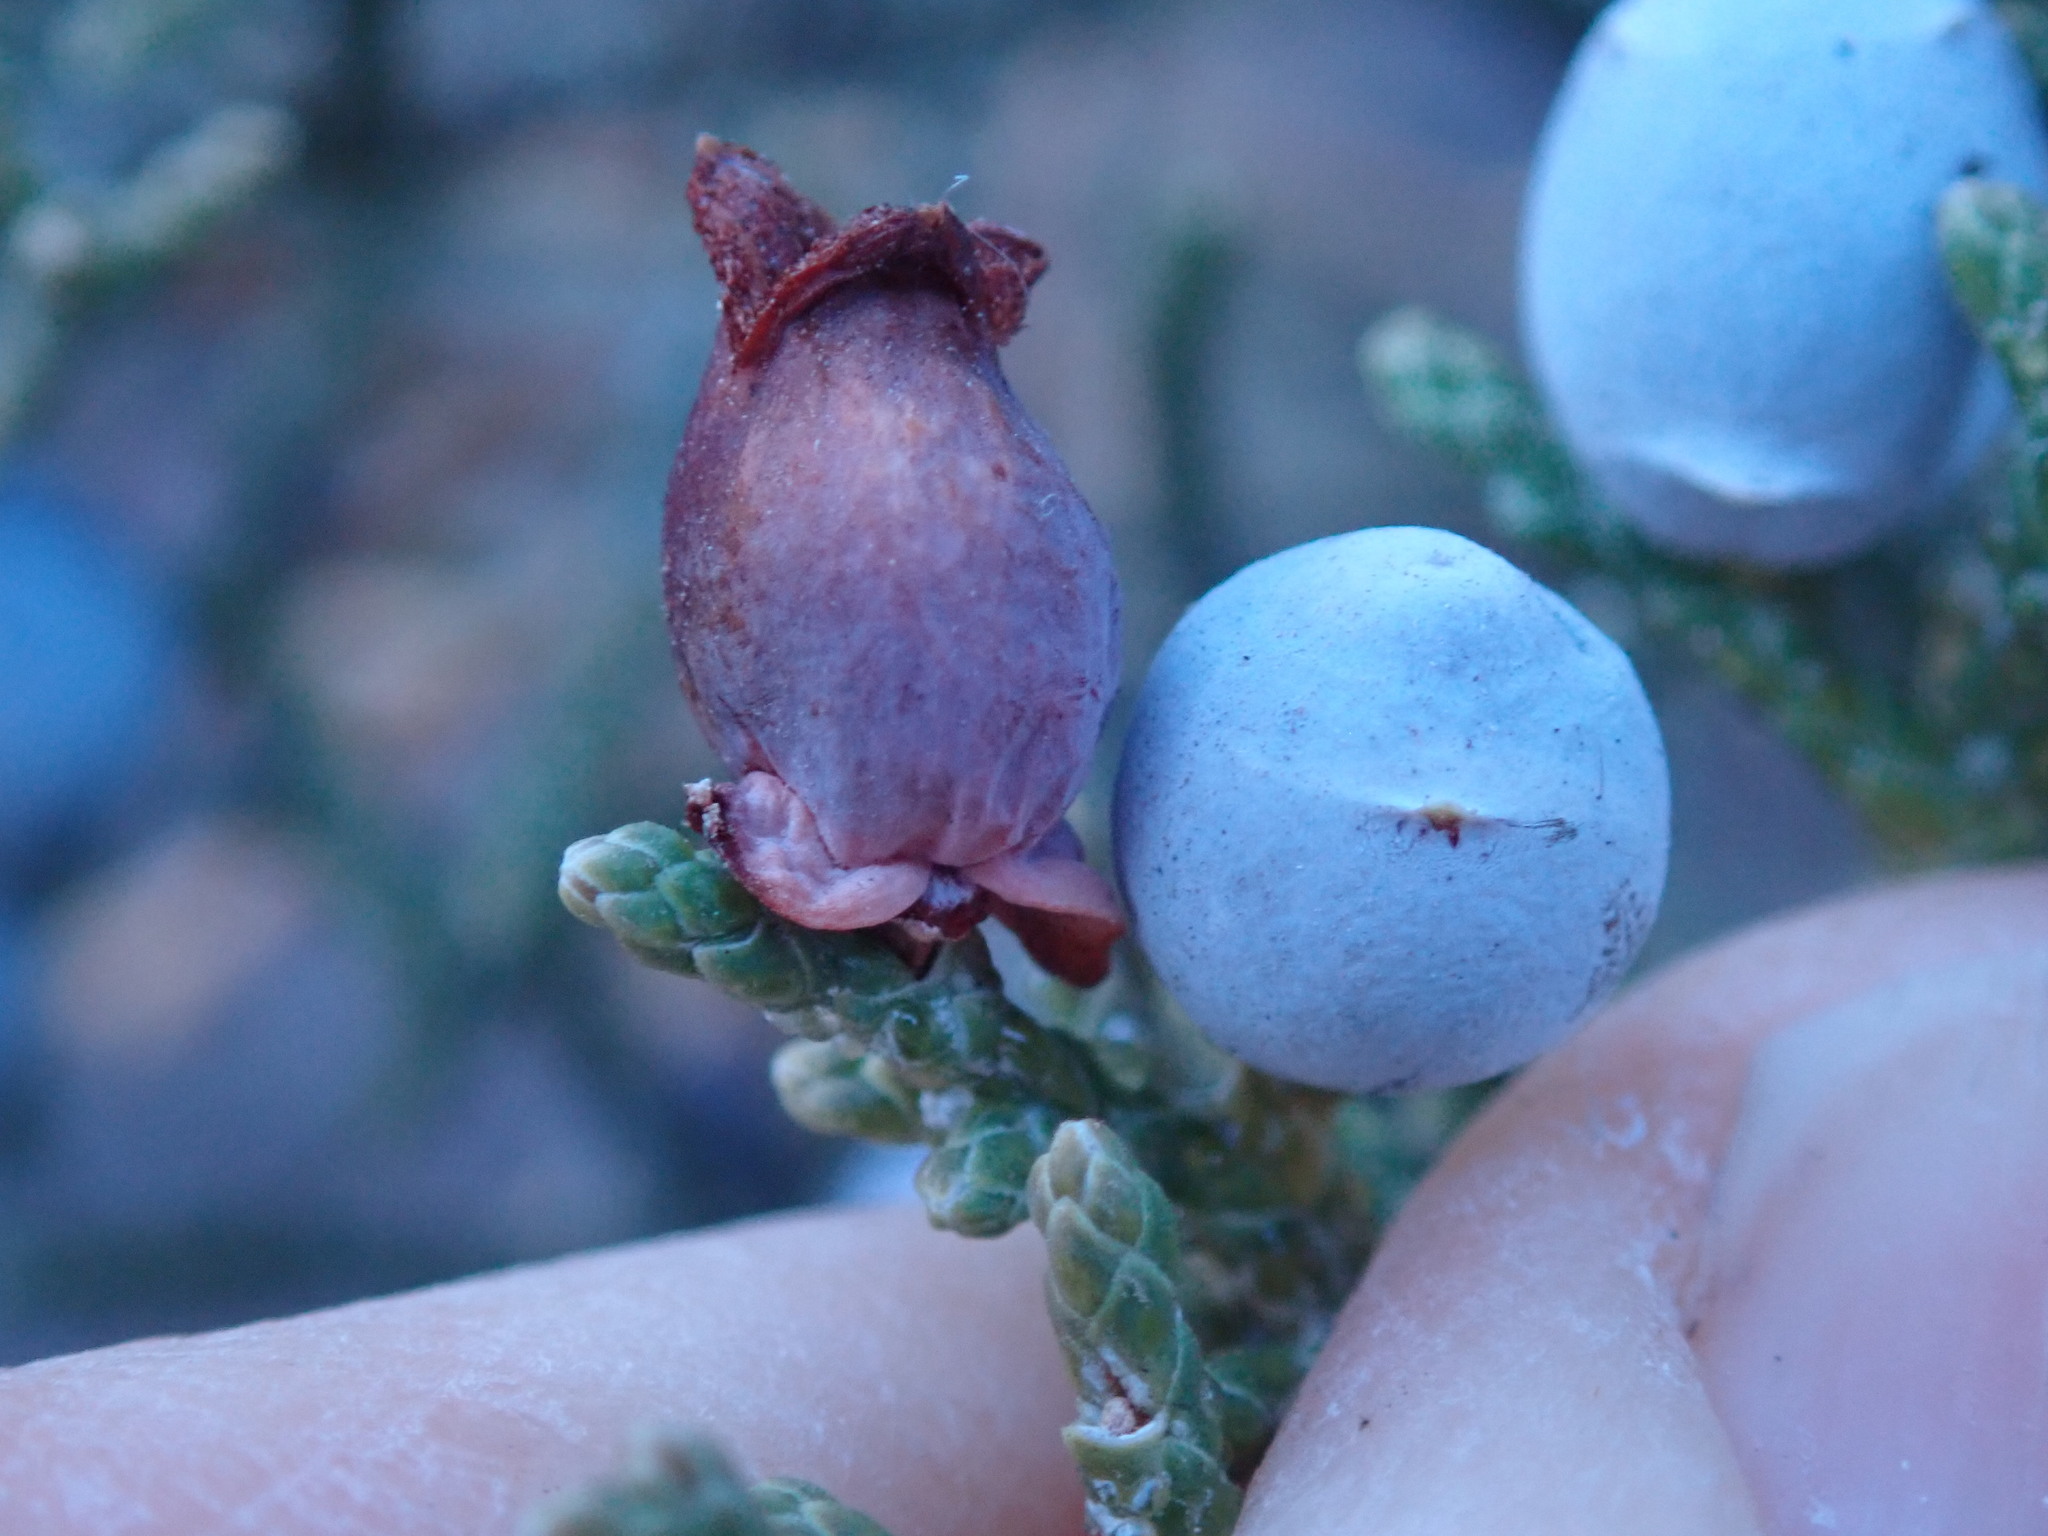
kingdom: Animalia
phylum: Arthropoda
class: Insecta
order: Diptera
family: Cecidomyiidae
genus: Walshomyia
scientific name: Walshomyia juniperina
